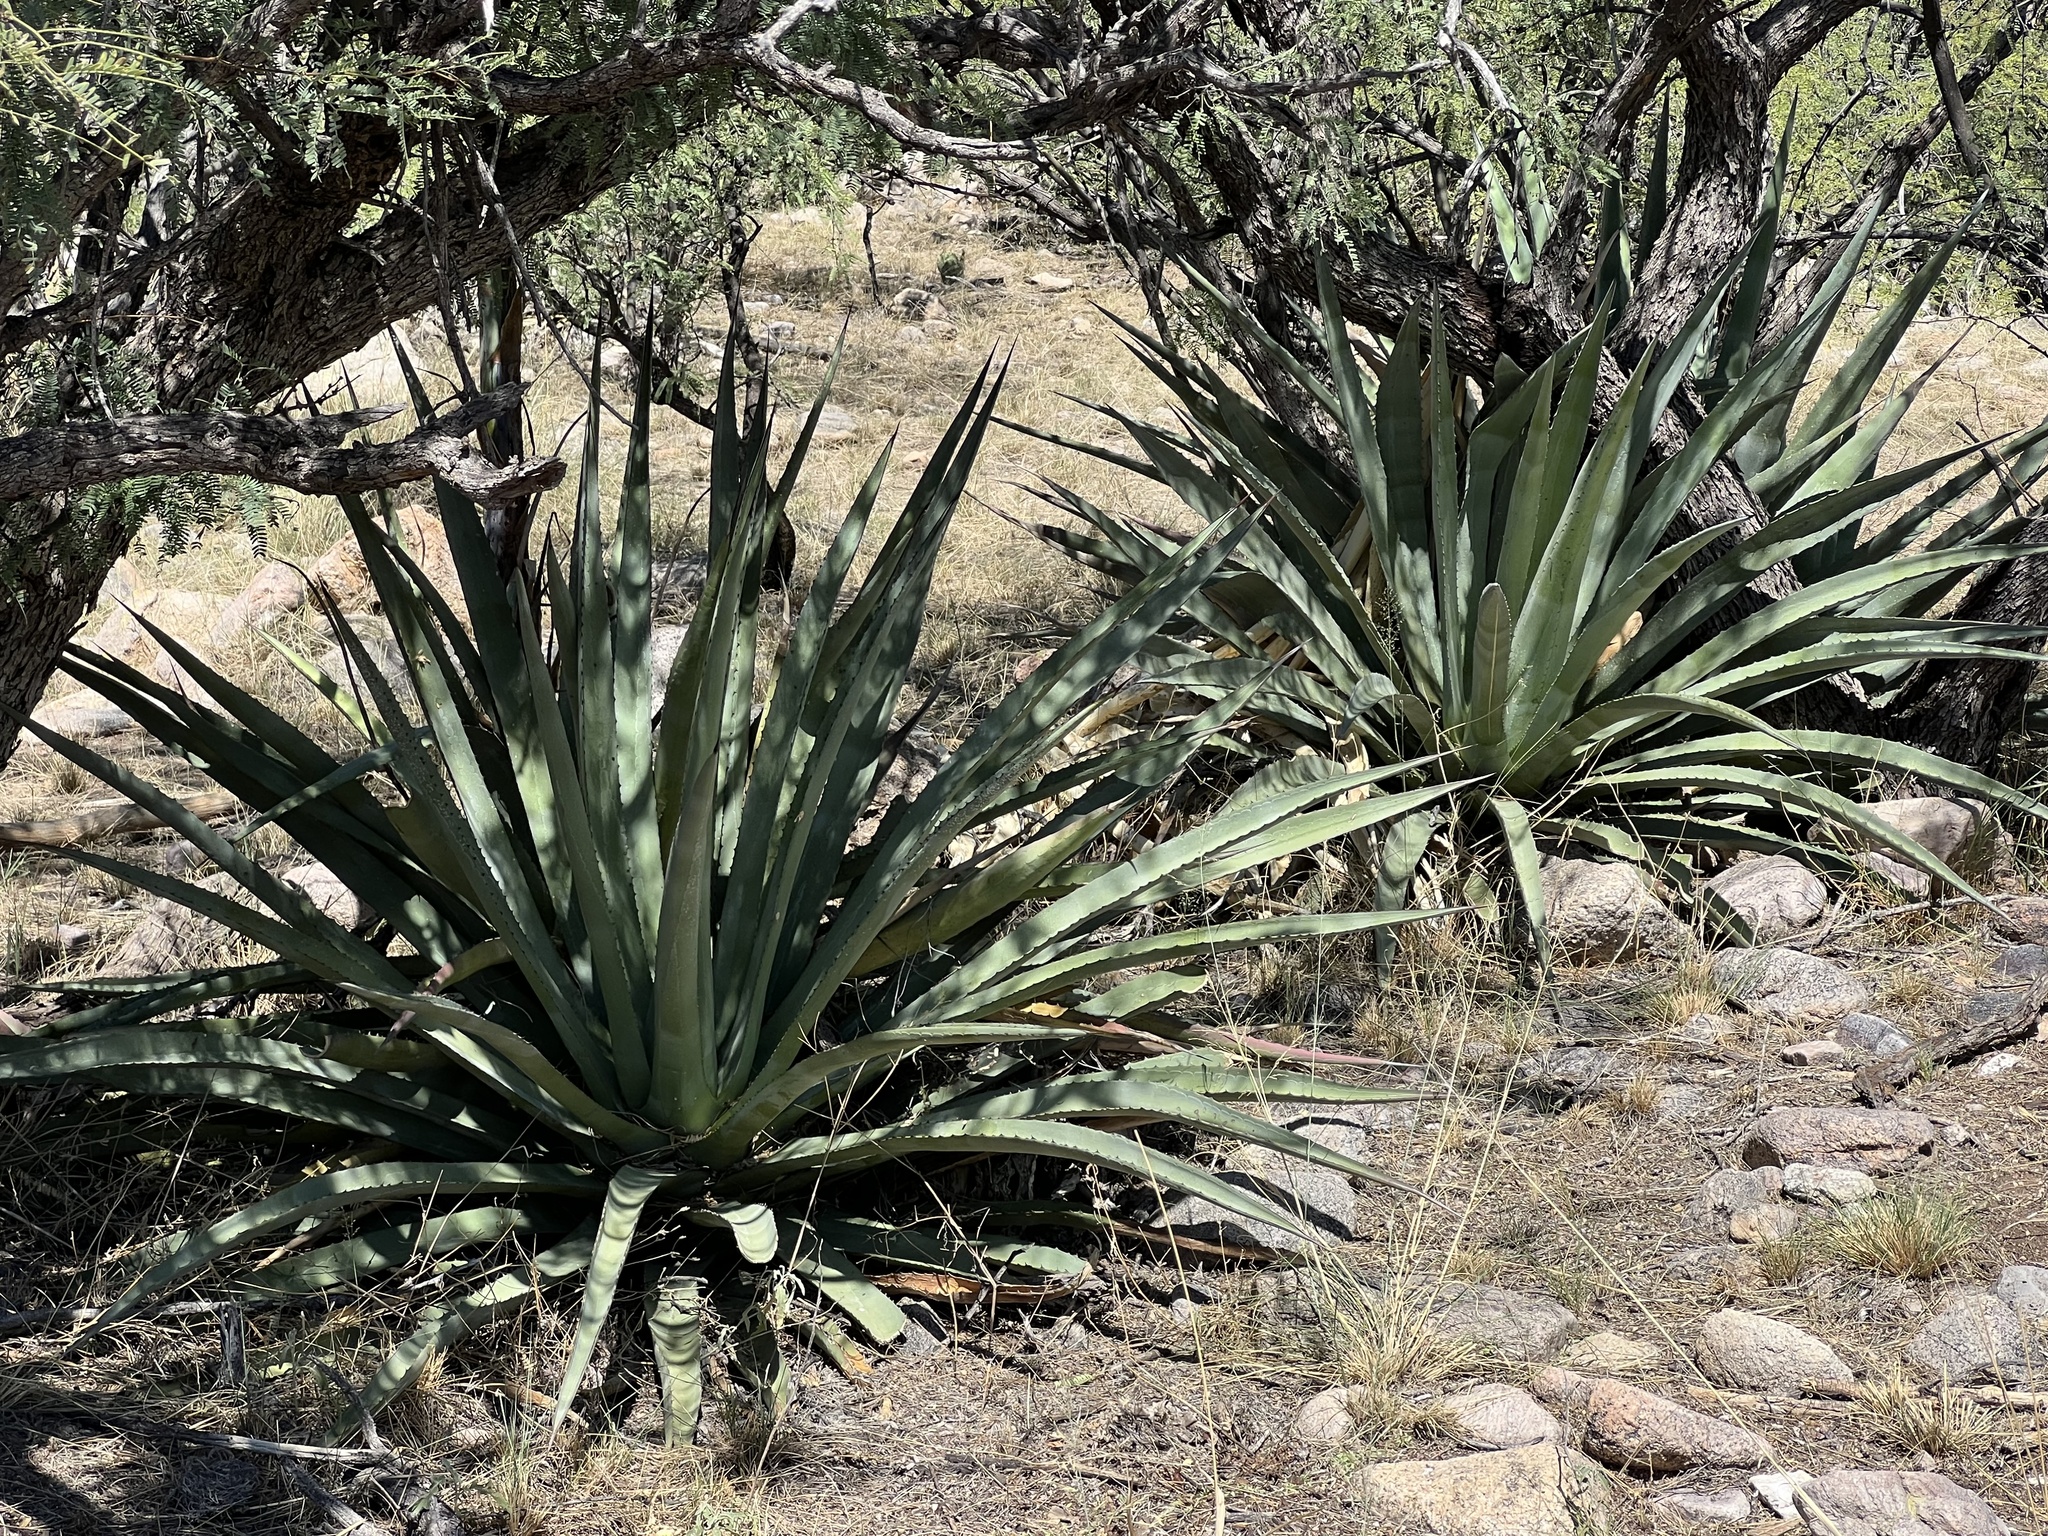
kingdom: Plantae
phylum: Tracheophyta
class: Liliopsida
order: Asparagales
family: Asparagaceae
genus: Agave
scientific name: Agave palmeri
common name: Palmer agave
